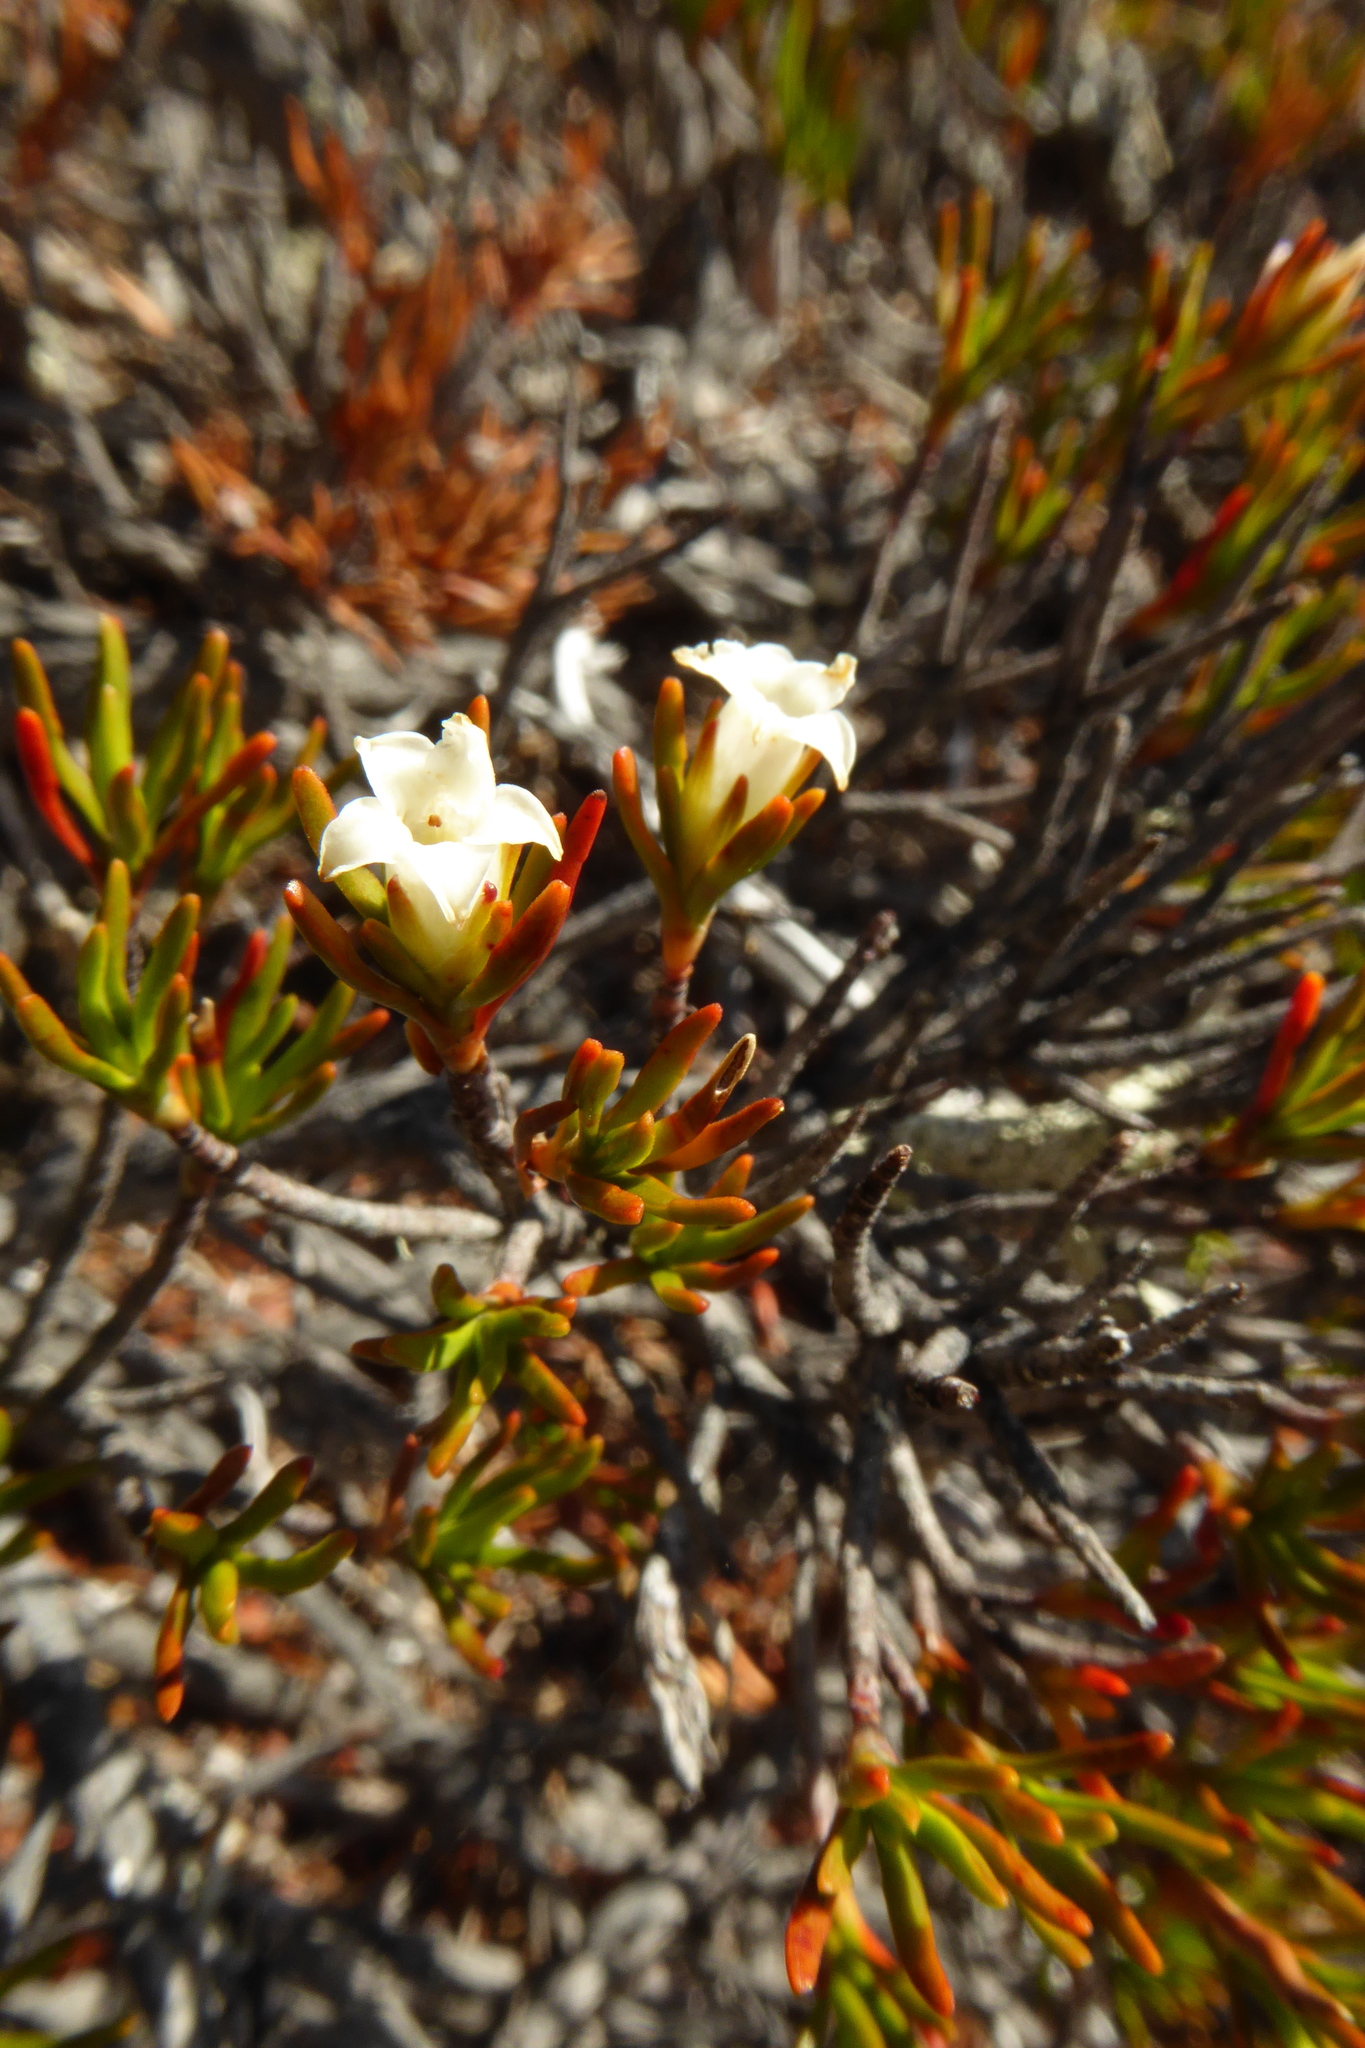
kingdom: Plantae
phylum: Tracheophyta
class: Magnoliopsida
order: Ericales
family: Ericaceae
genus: Dracophyllum
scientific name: Dracophyllum pronum
